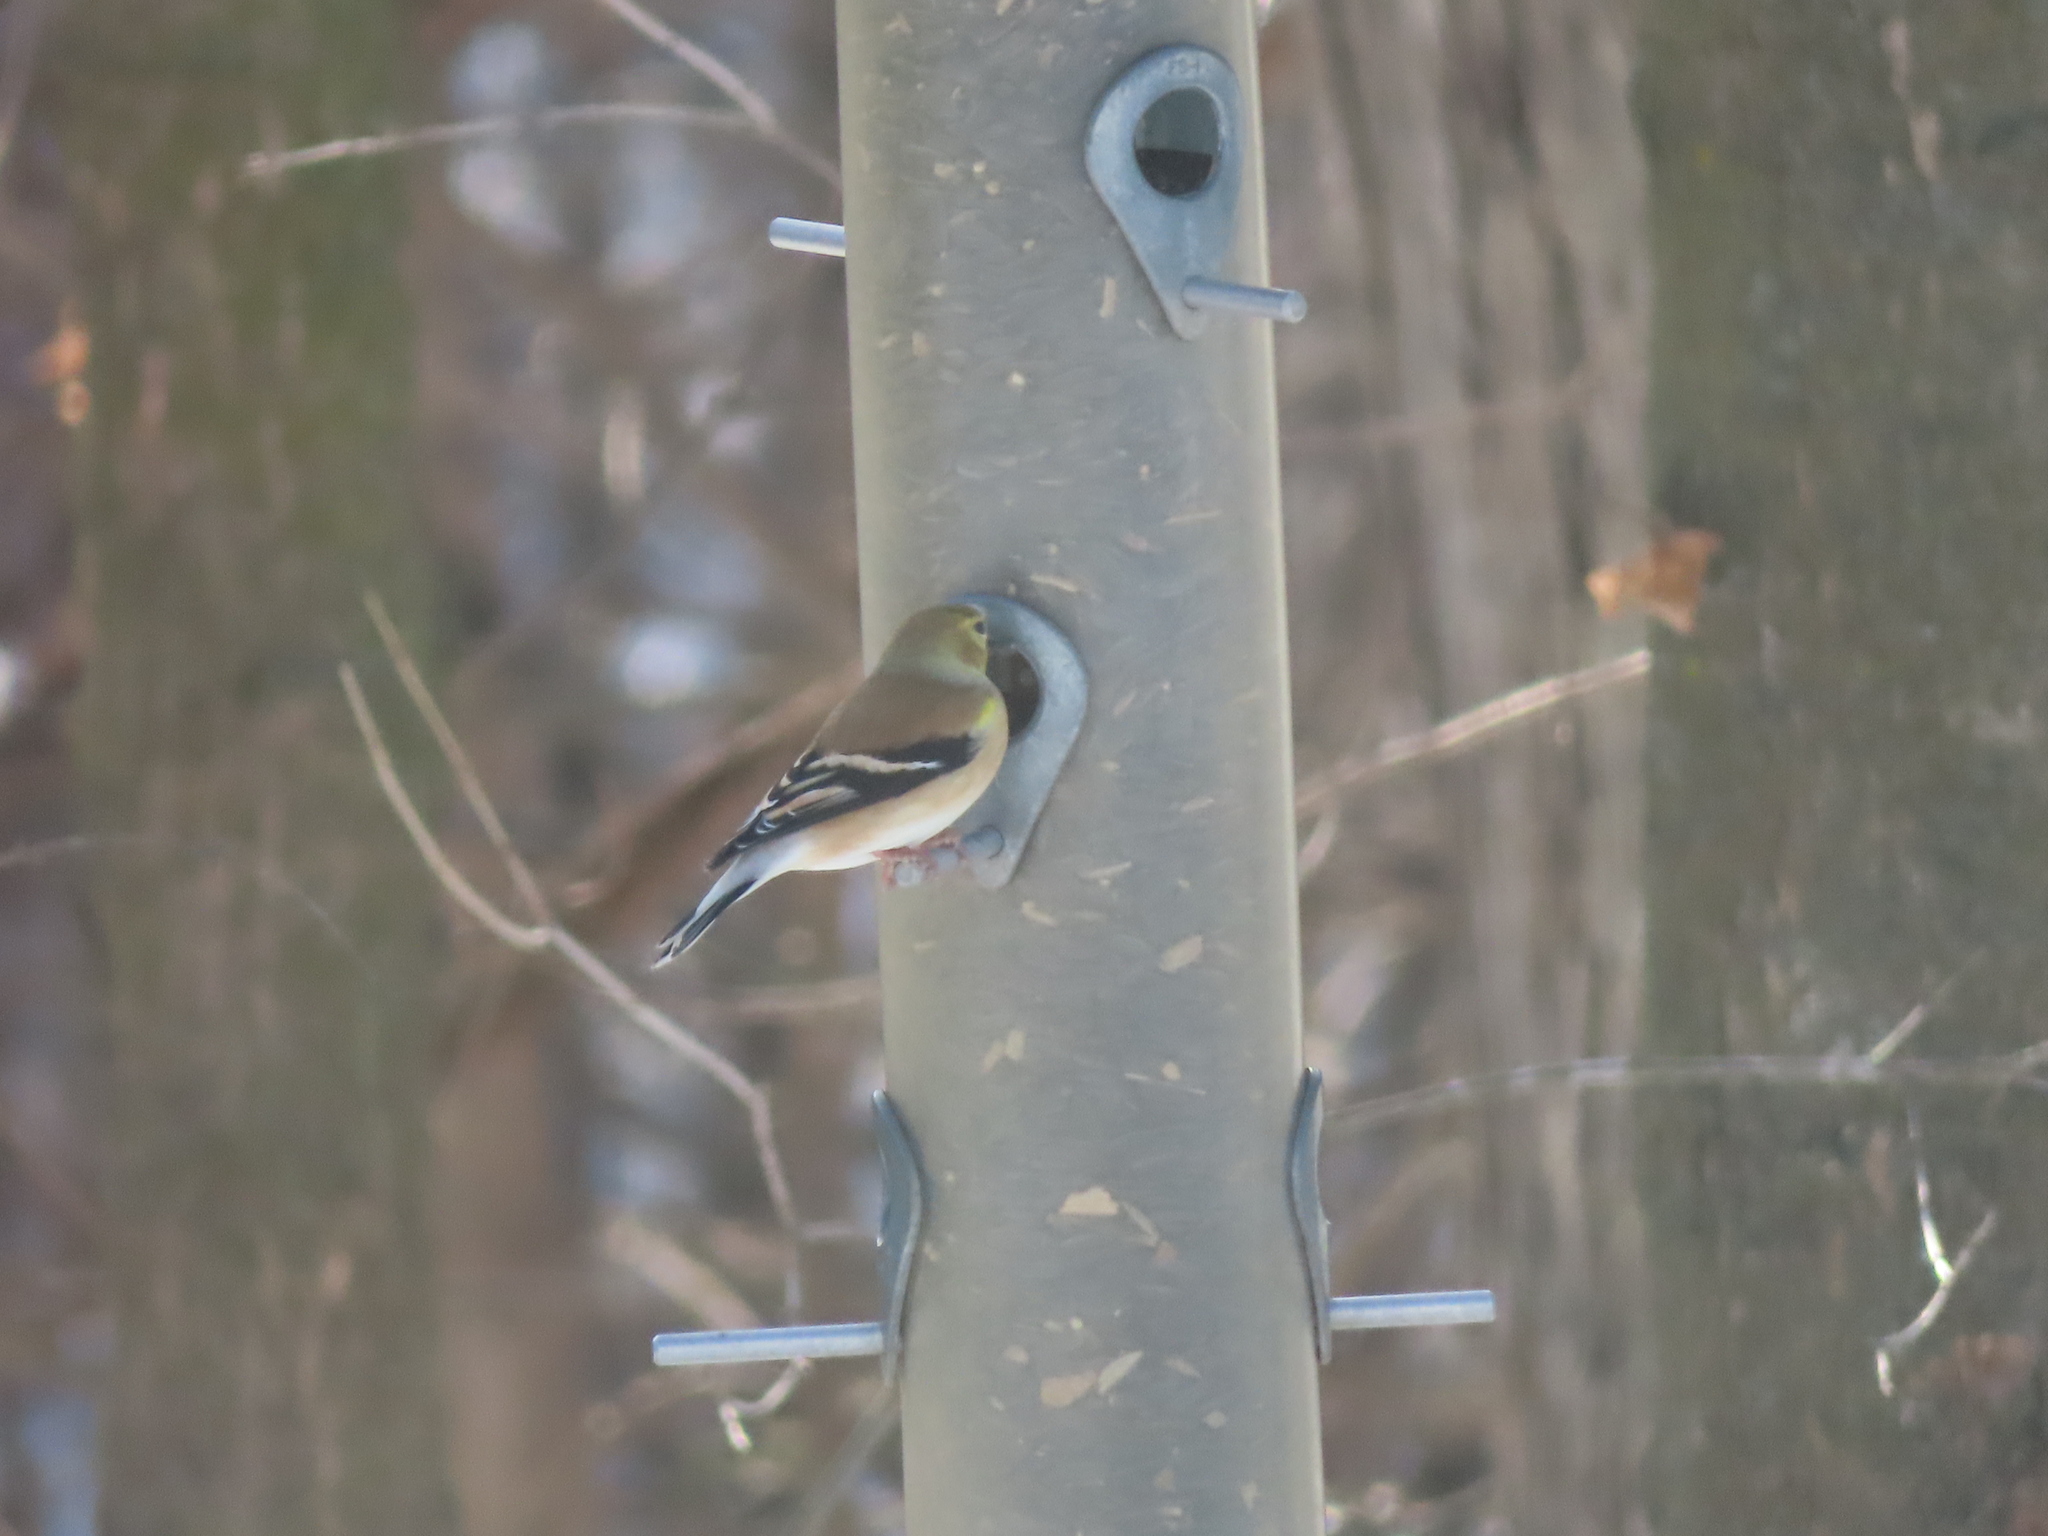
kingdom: Animalia
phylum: Chordata
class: Aves
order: Passeriformes
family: Fringillidae
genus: Spinus
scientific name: Spinus tristis
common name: American goldfinch
